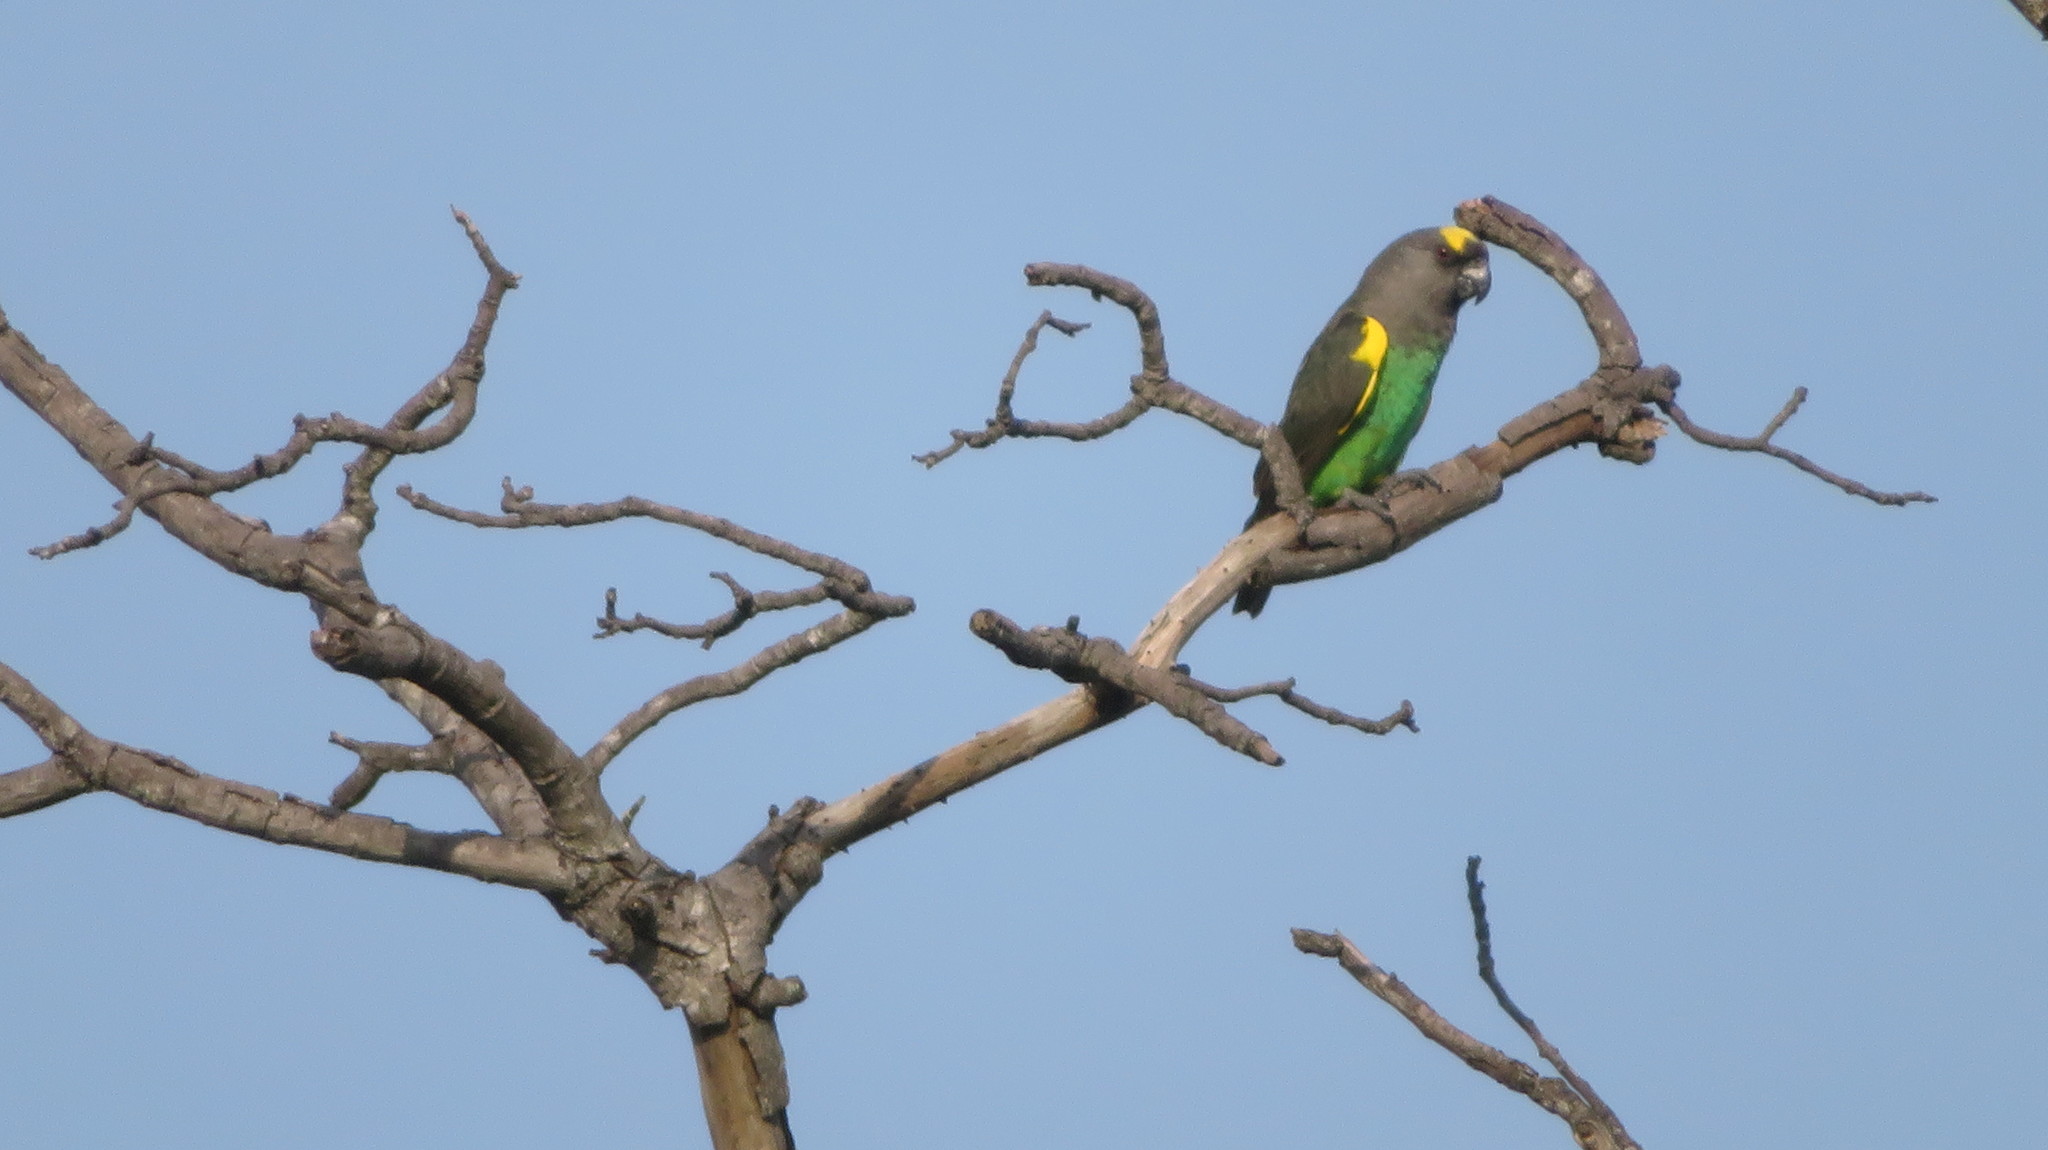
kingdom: Animalia
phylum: Chordata
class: Aves
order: Psittaciformes
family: Psittacidae
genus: Poicephalus
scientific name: Poicephalus meyeri
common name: Meyer's parrot
